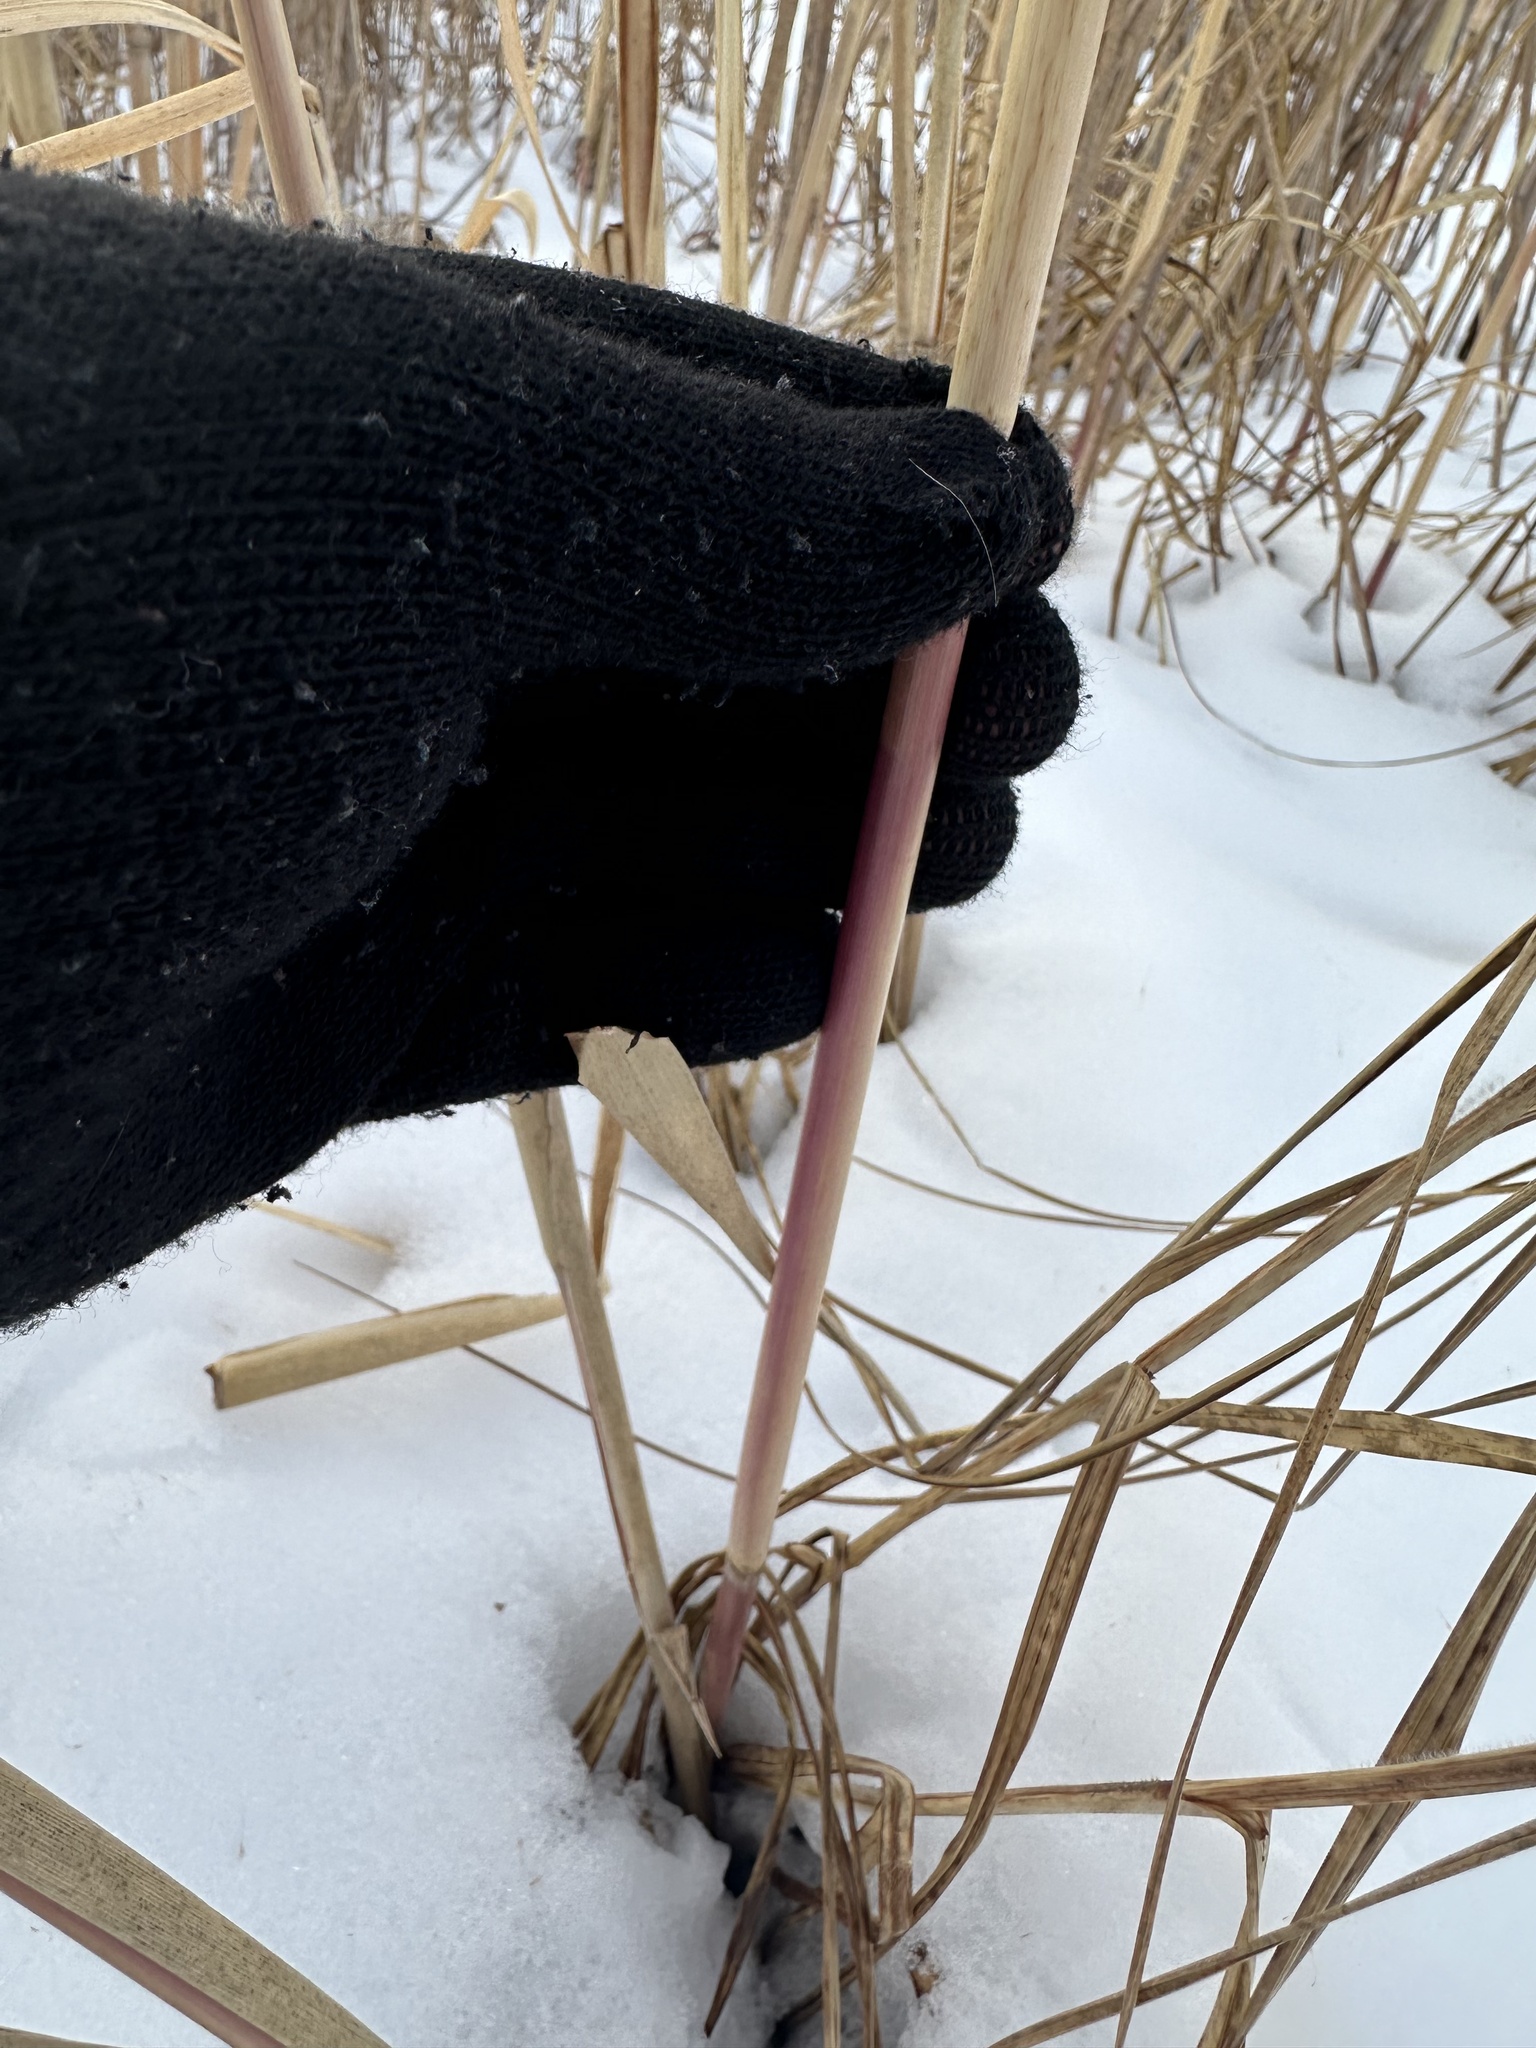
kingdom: Plantae
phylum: Tracheophyta
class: Liliopsida
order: Poales
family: Poaceae
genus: Phragmites
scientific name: Phragmites australis
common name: Common reed
